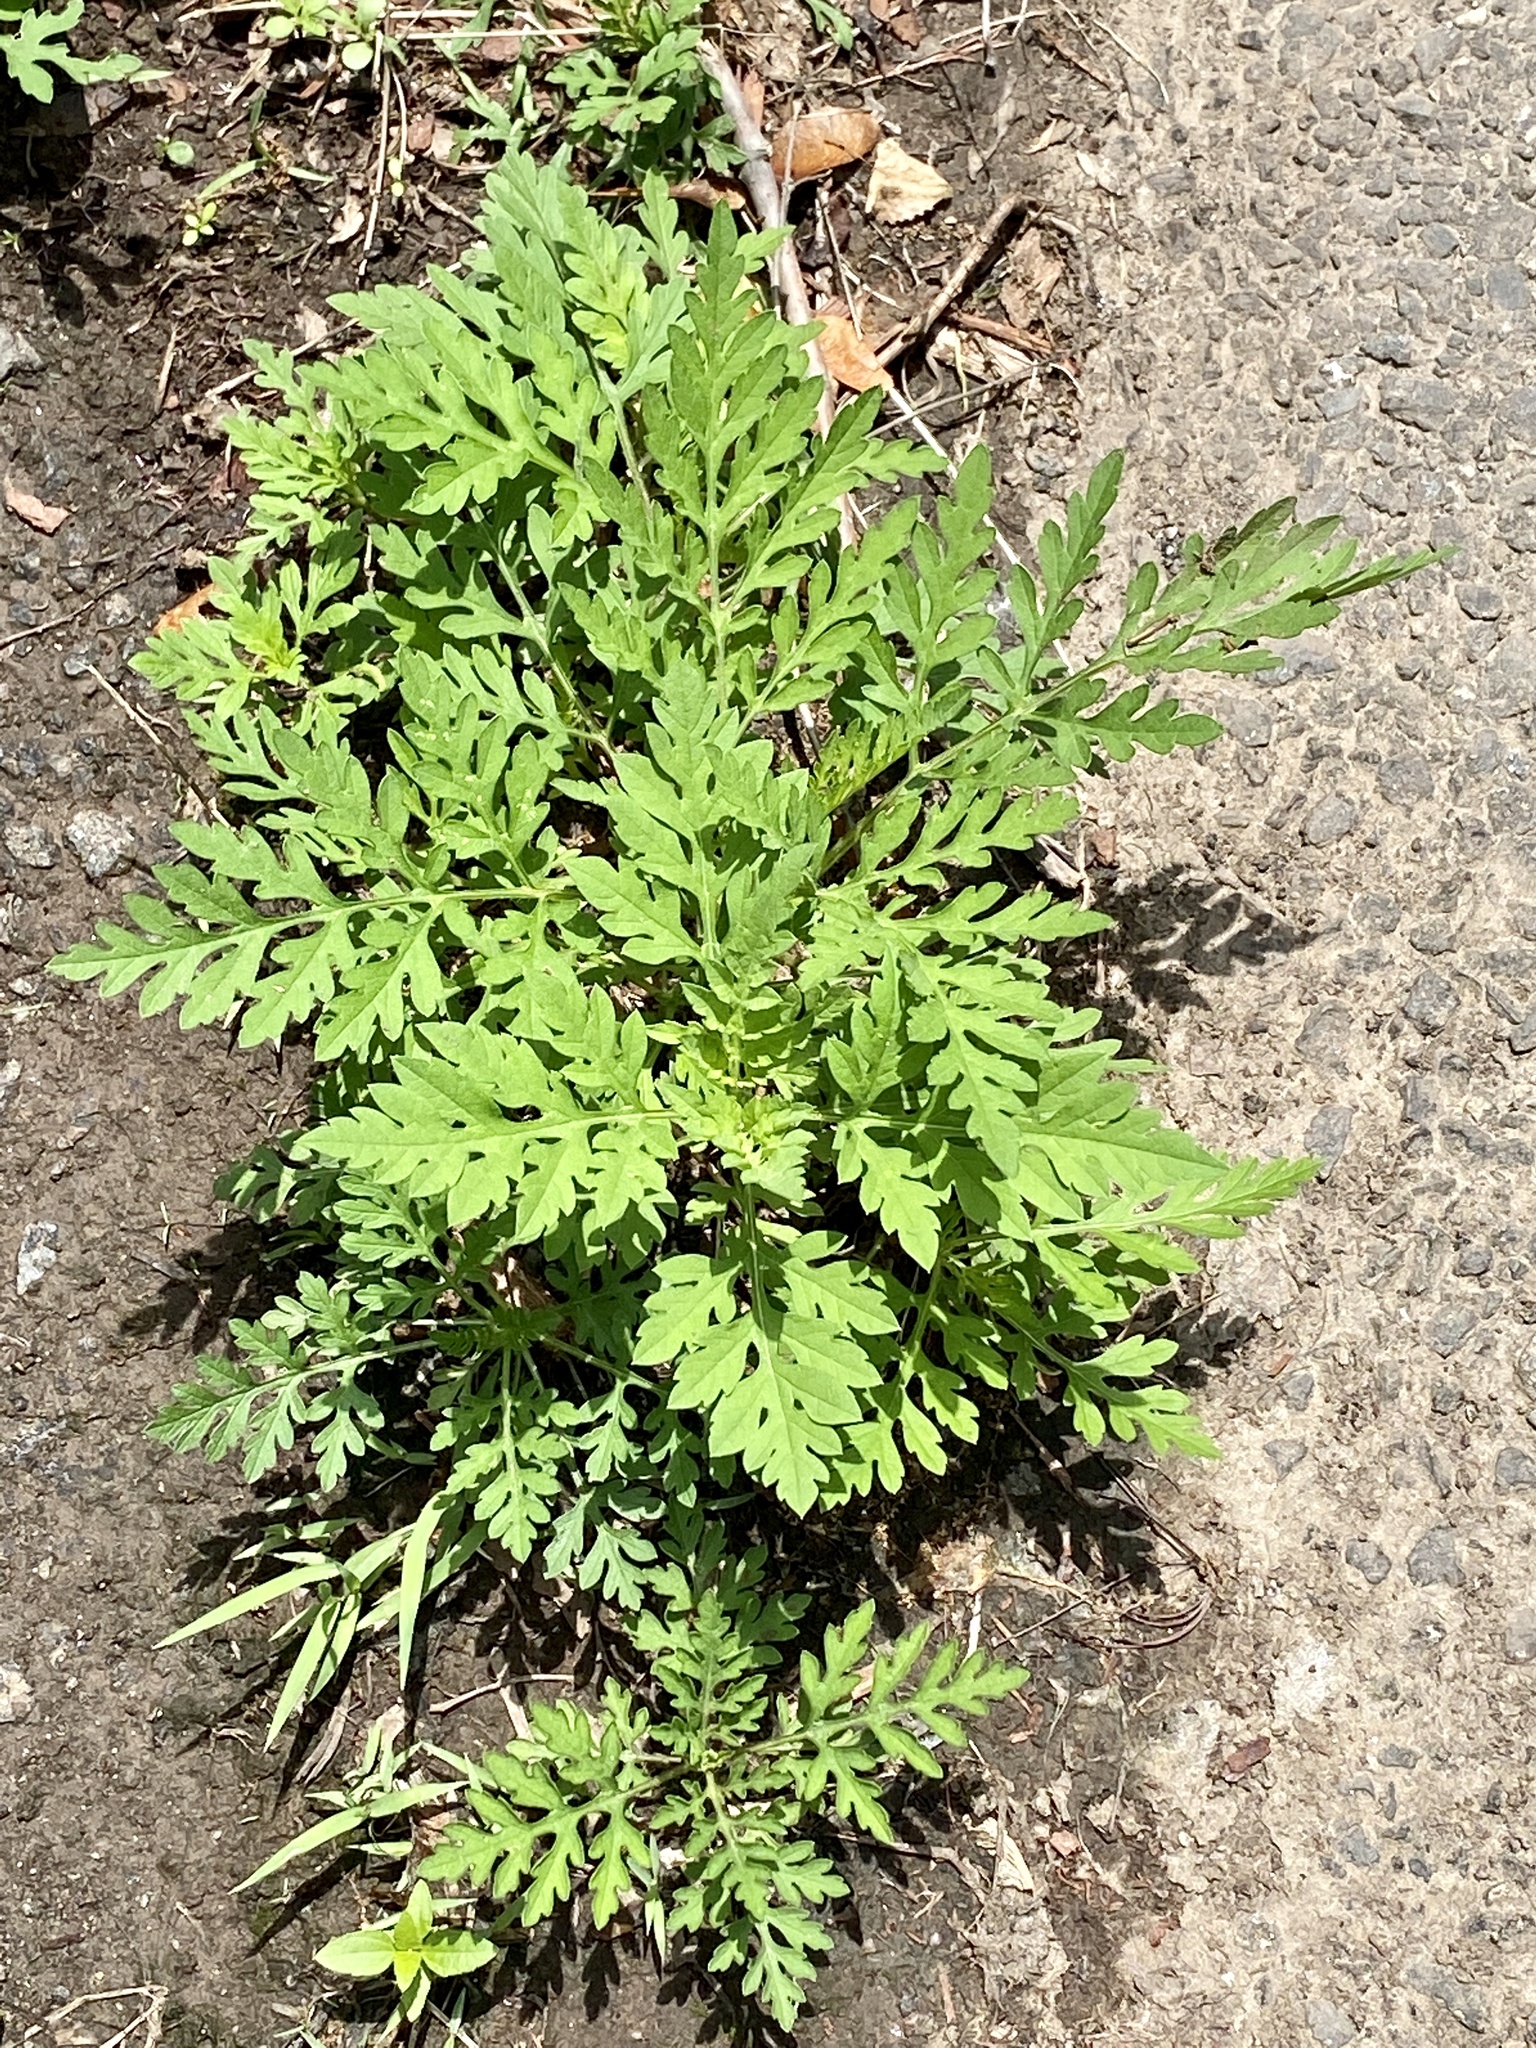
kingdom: Plantae
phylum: Tracheophyta
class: Magnoliopsida
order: Asterales
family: Asteraceae
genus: Ambrosia
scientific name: Ambrosia artemisiifolia
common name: Annual ragweed
